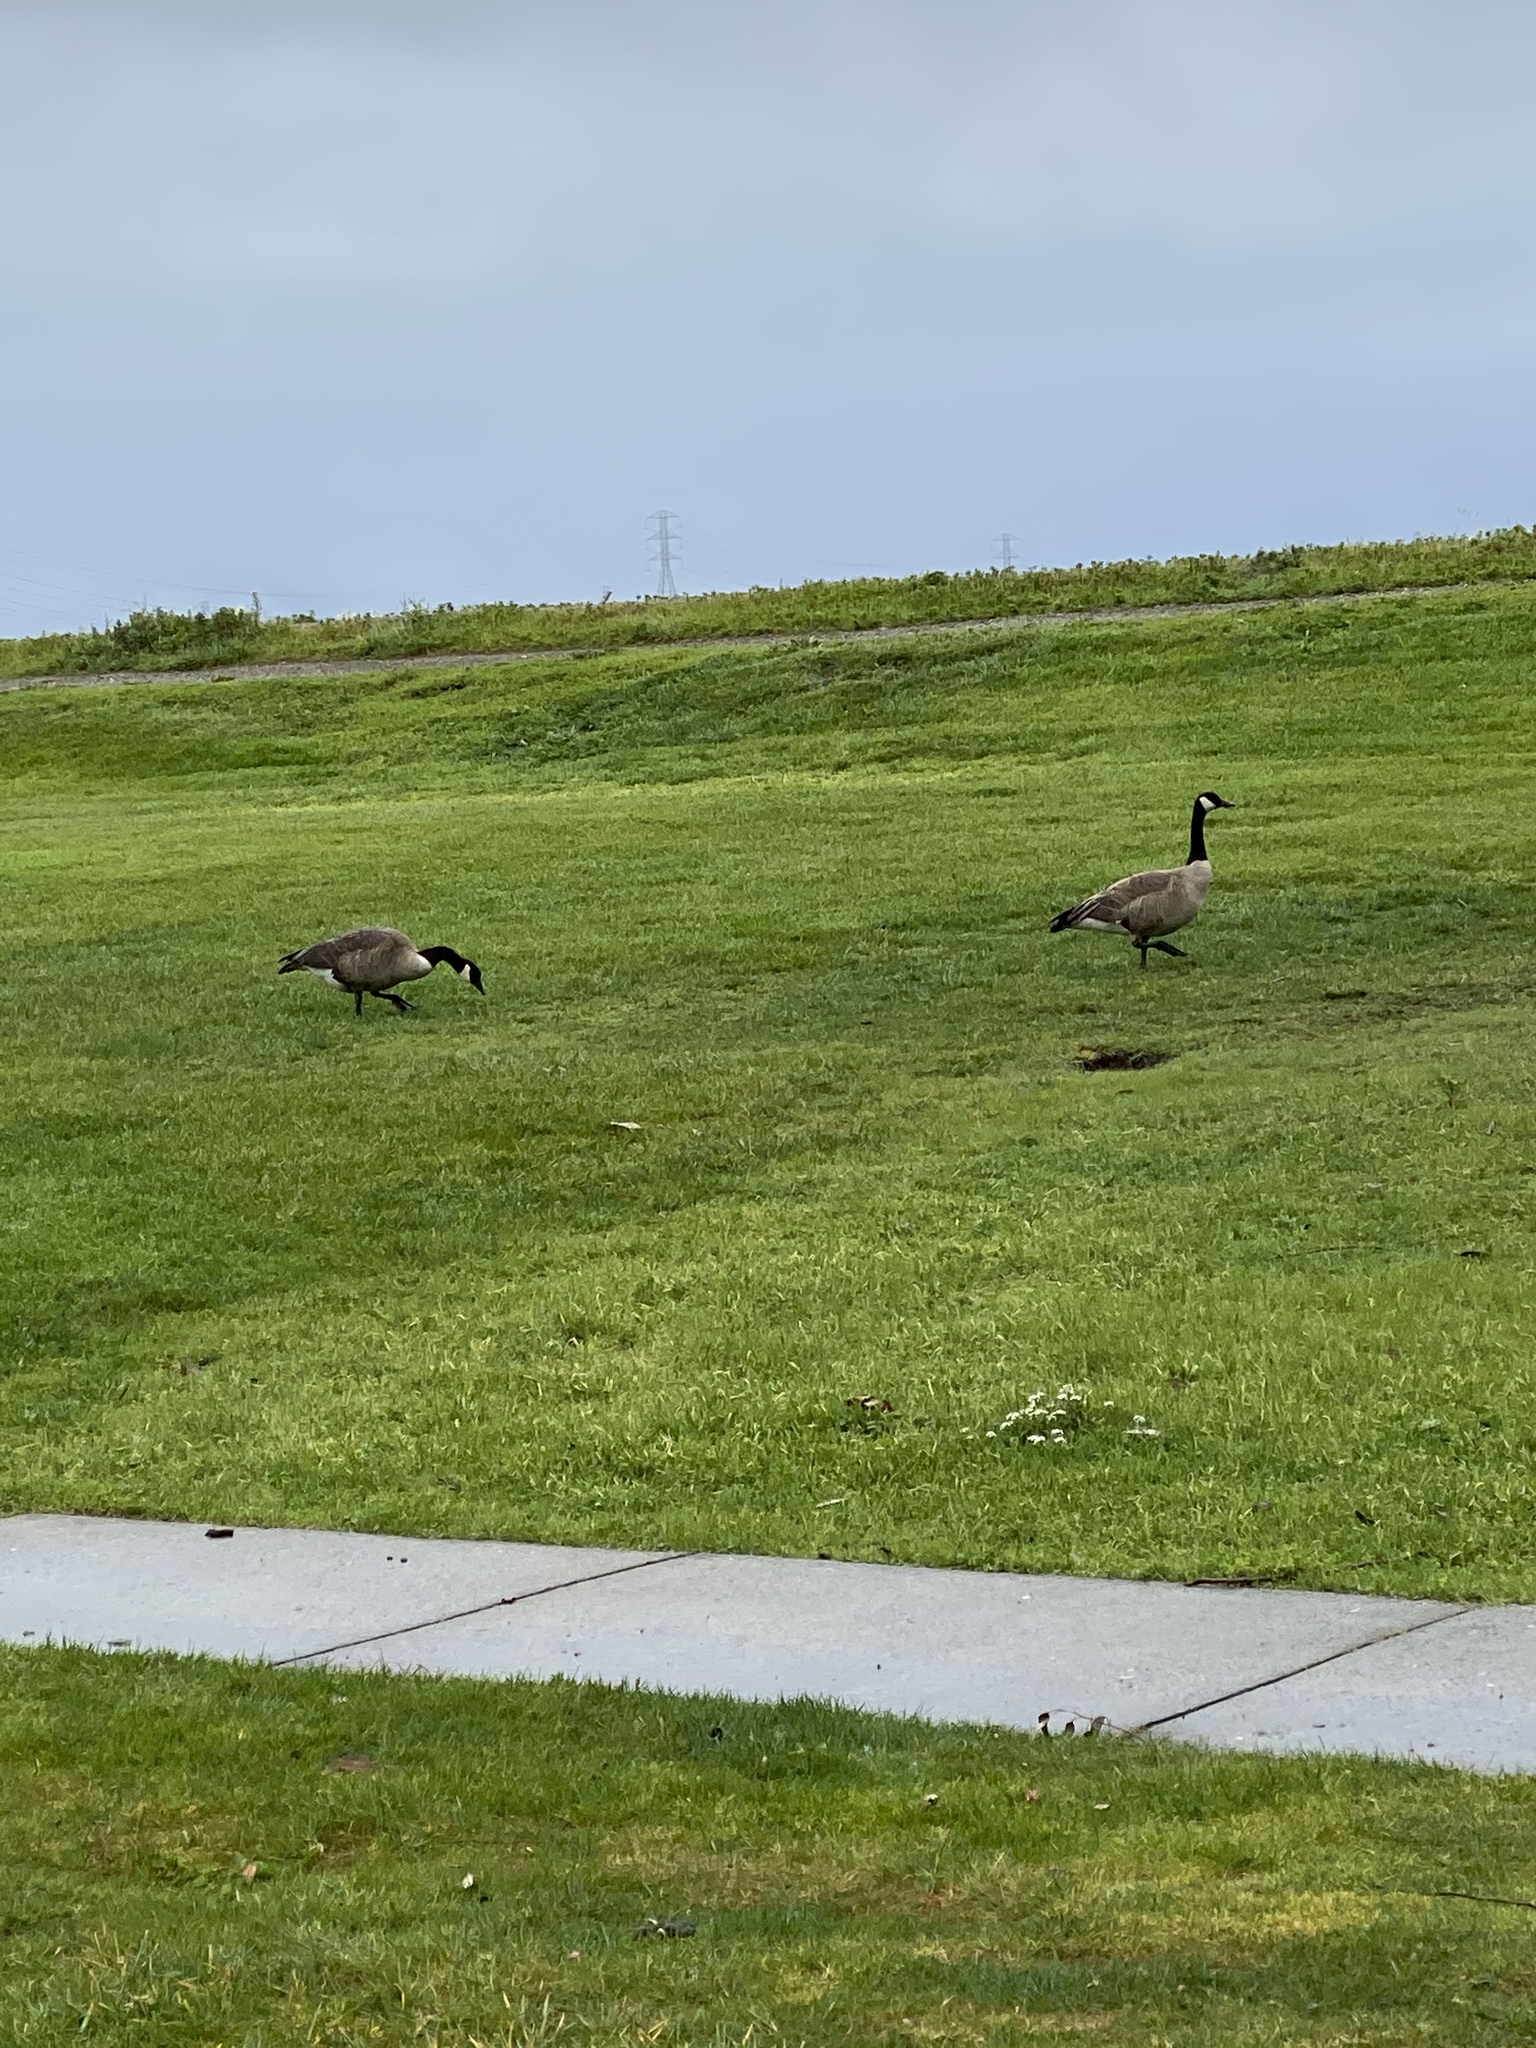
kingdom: Animalia
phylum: Chordata
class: Aves
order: Anseriformes
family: Anatidae
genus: Branta
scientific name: Branta canadensis
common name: Canada goose
